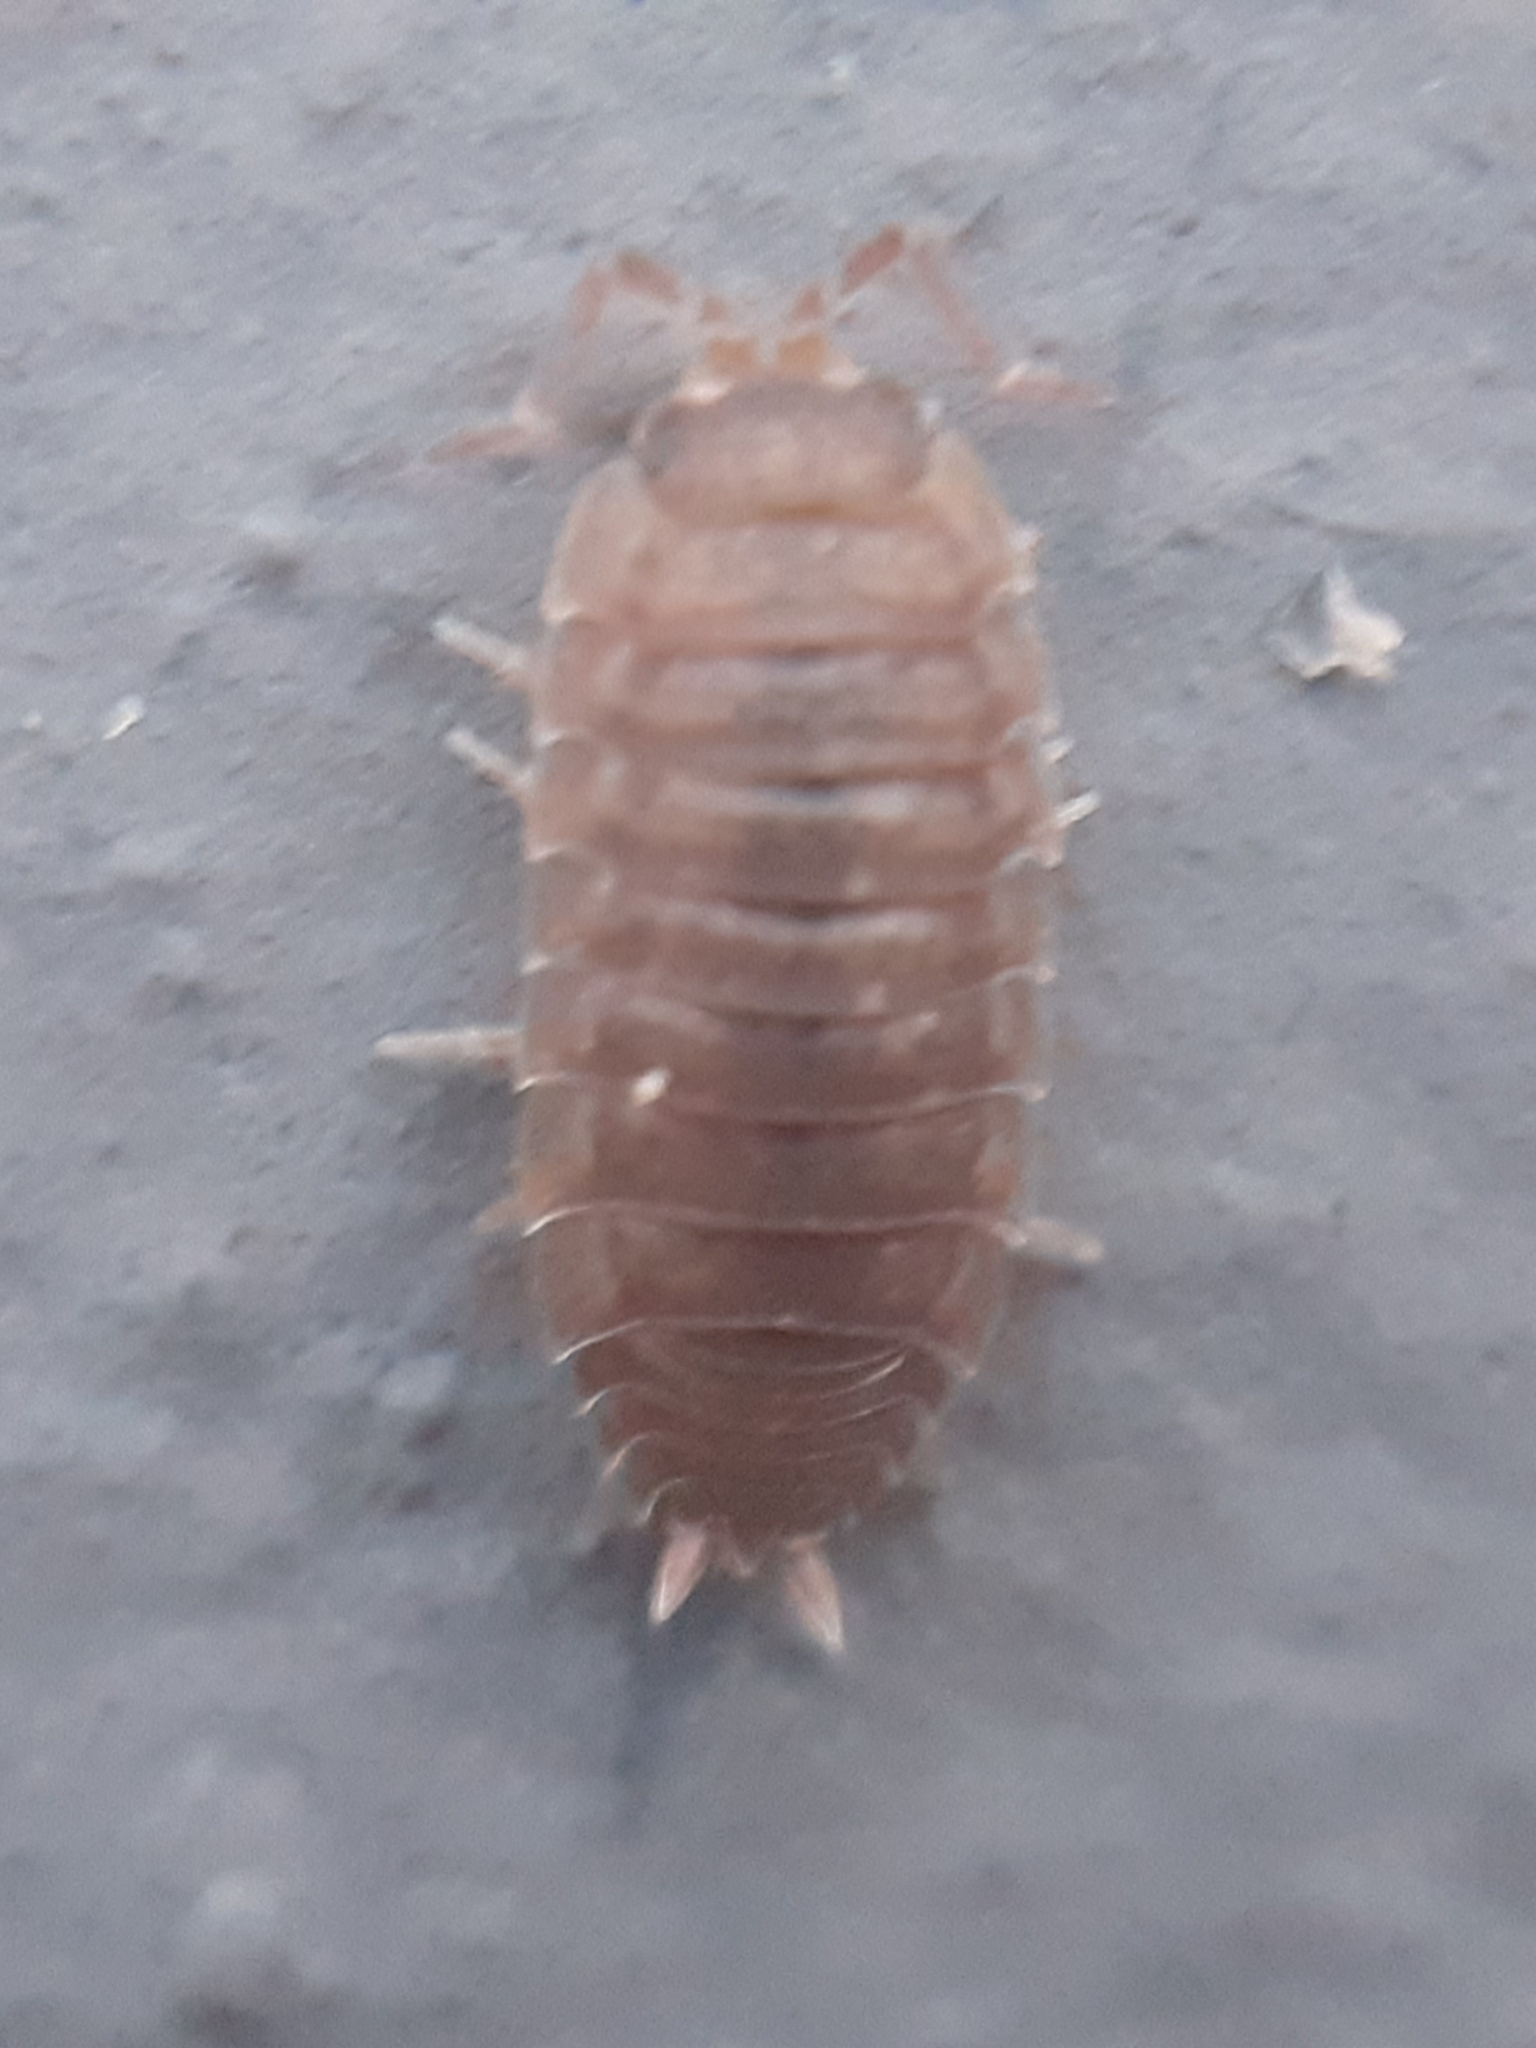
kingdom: Animalia
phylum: Arthropoda
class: Malacostraca
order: Isopoda
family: Porcellionidae
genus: Porcellio
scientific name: Porcellio scaber
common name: Common rough woodlouse
